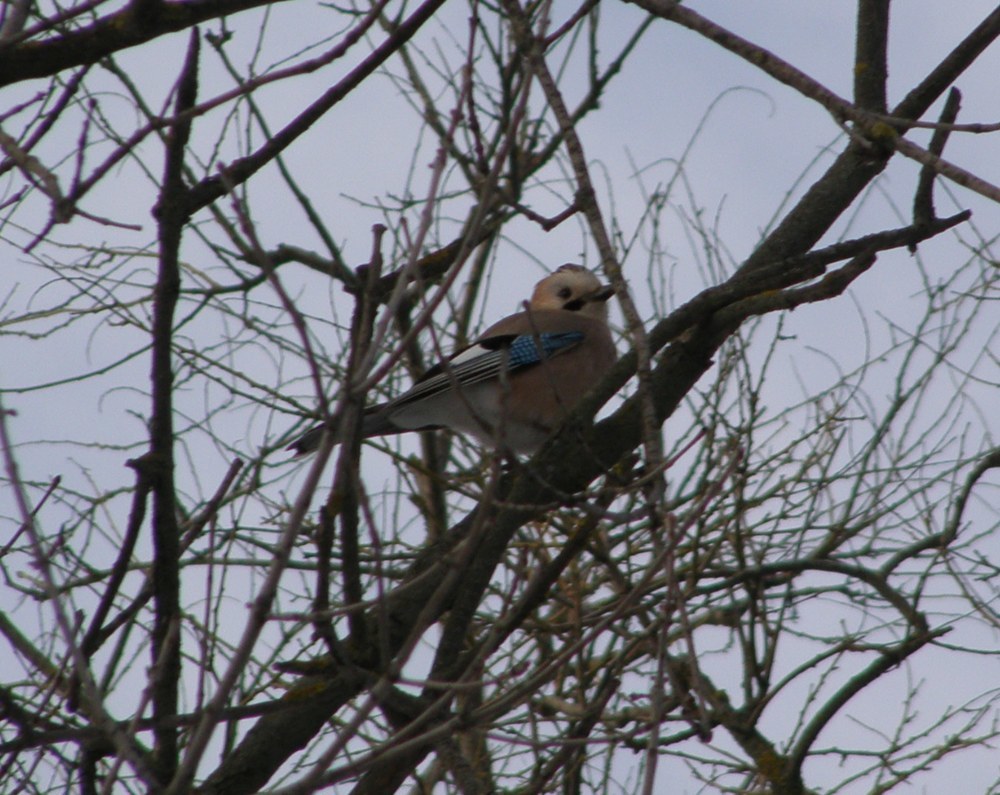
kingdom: Animalia
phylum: Chordata
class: Aves
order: Passeriformes
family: Corvidae
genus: Garrulus
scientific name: Garrulus glandarius
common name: Eurasian jay
